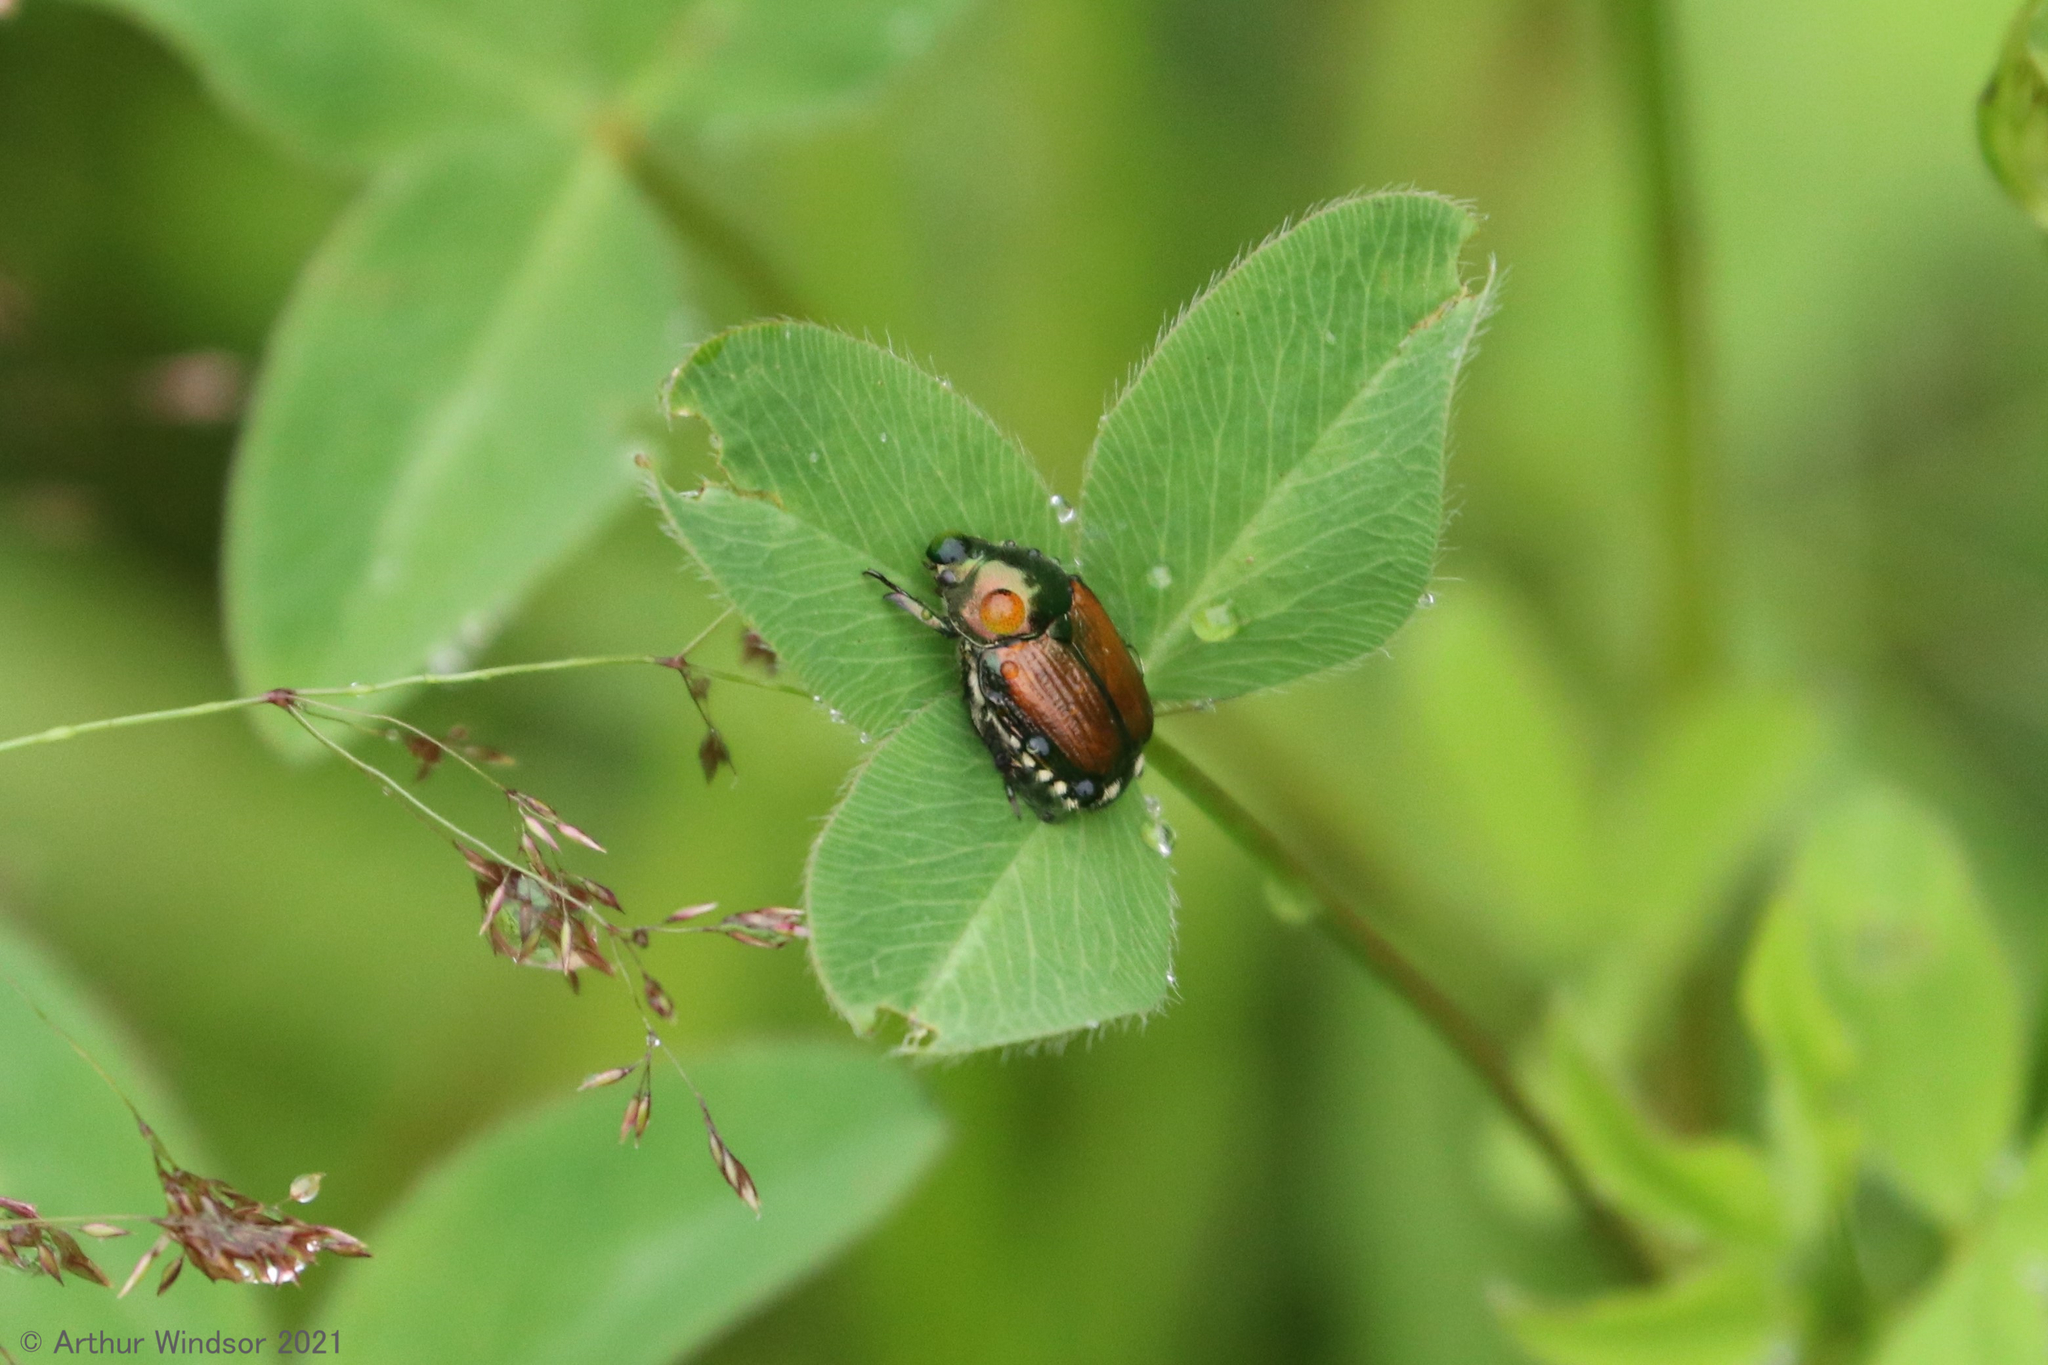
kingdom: Animalia
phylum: Arthropoda
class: Insecta
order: Coleoptera
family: Scarabaeidae
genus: Popillia
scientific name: Popillia japonica
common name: Japanese beetle
